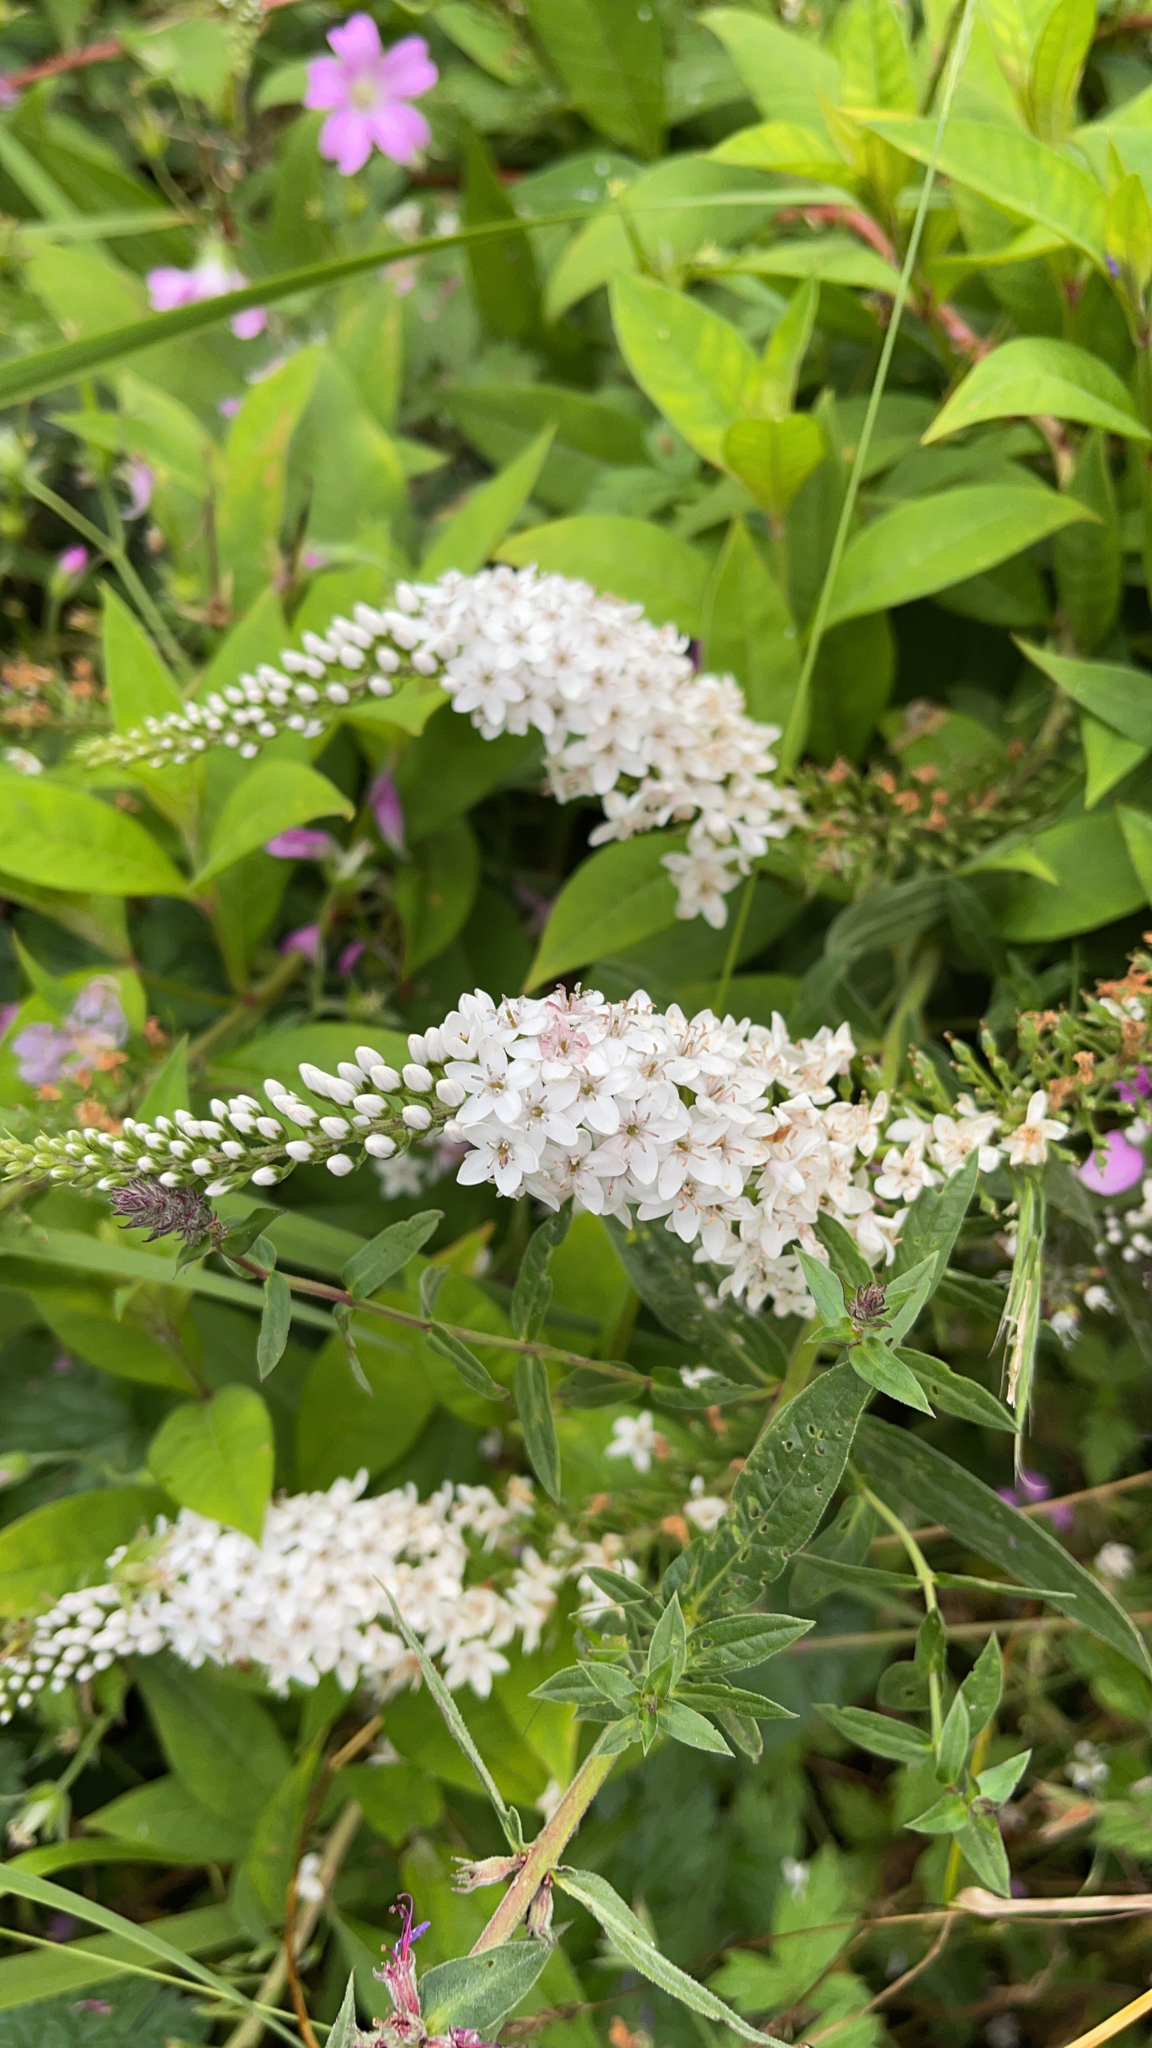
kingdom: Plantae
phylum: Tracheophyta
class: Magnoliopsida
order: Ericales
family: Primulaceae
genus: Lysimachia
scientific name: Lysimachia clethroides
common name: Gooseneck loosestrife
